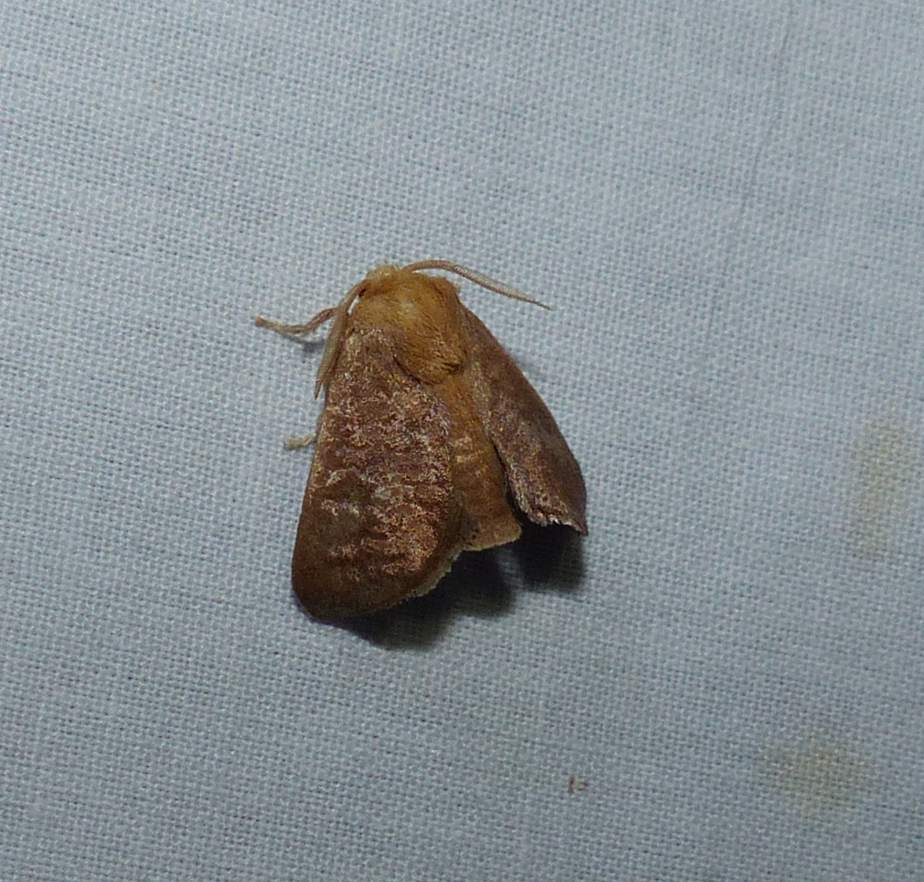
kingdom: Animalia
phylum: Arthropoda
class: Insecta
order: Lepidoptera
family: Limacodidae
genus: Isa
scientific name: Isa textula
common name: Crowned slug moth
